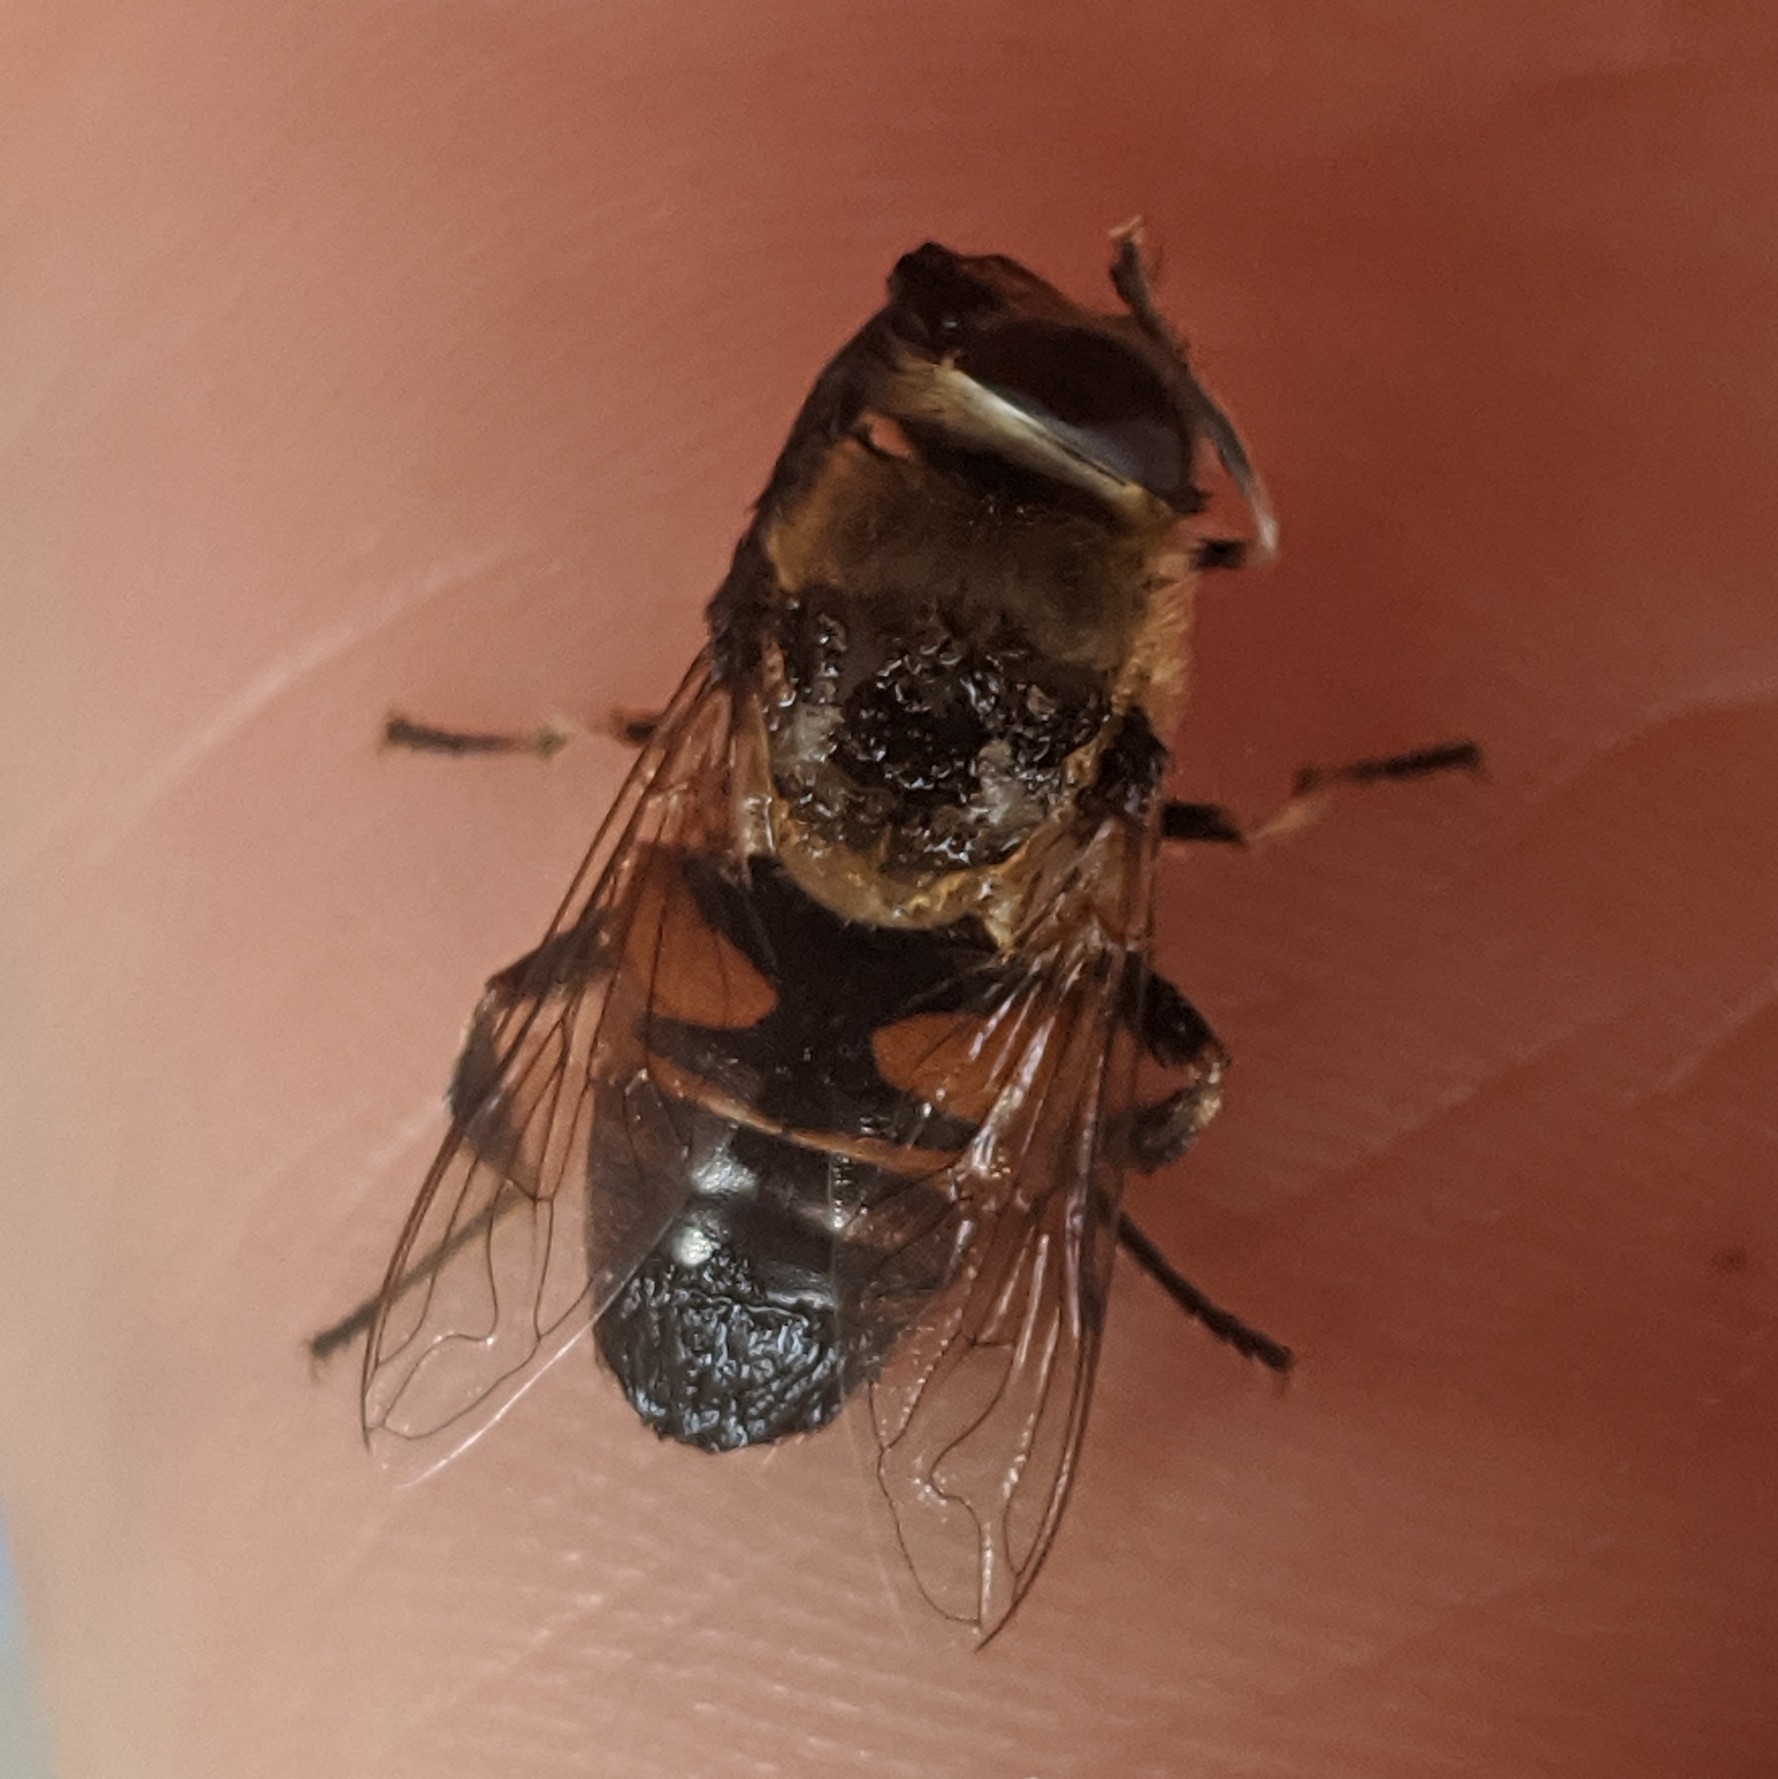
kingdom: Animalia
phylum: Arthropoda
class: Insecta
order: Diptera
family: Syrphidae
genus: Eristalis
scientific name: Eristalis tenax
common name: Drone fly
